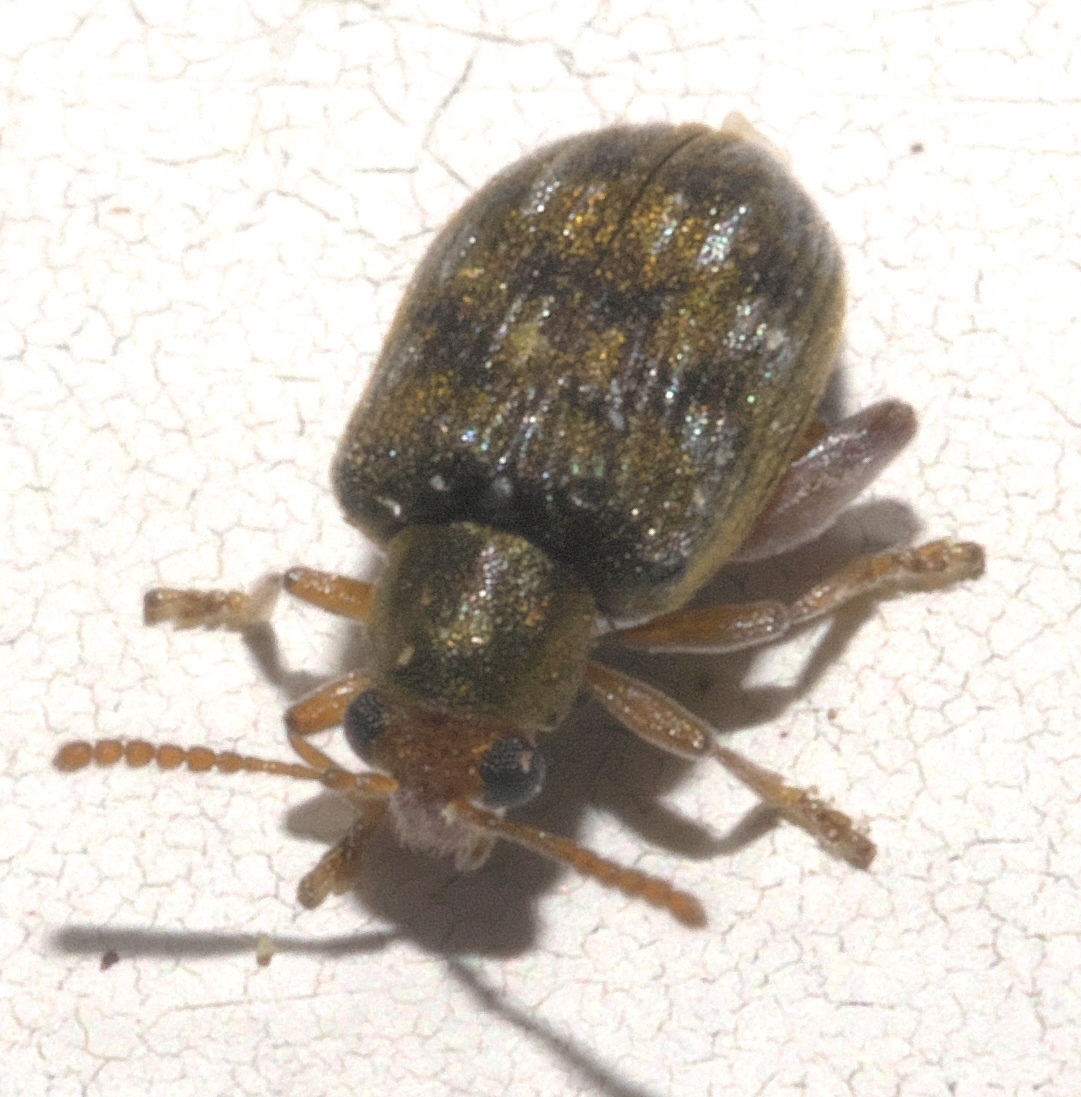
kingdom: Animalia
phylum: Arthropoda
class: Insecta
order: Coleoptera
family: Chrysomelidae
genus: Pseudolampis
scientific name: Pseudolampis guttata
